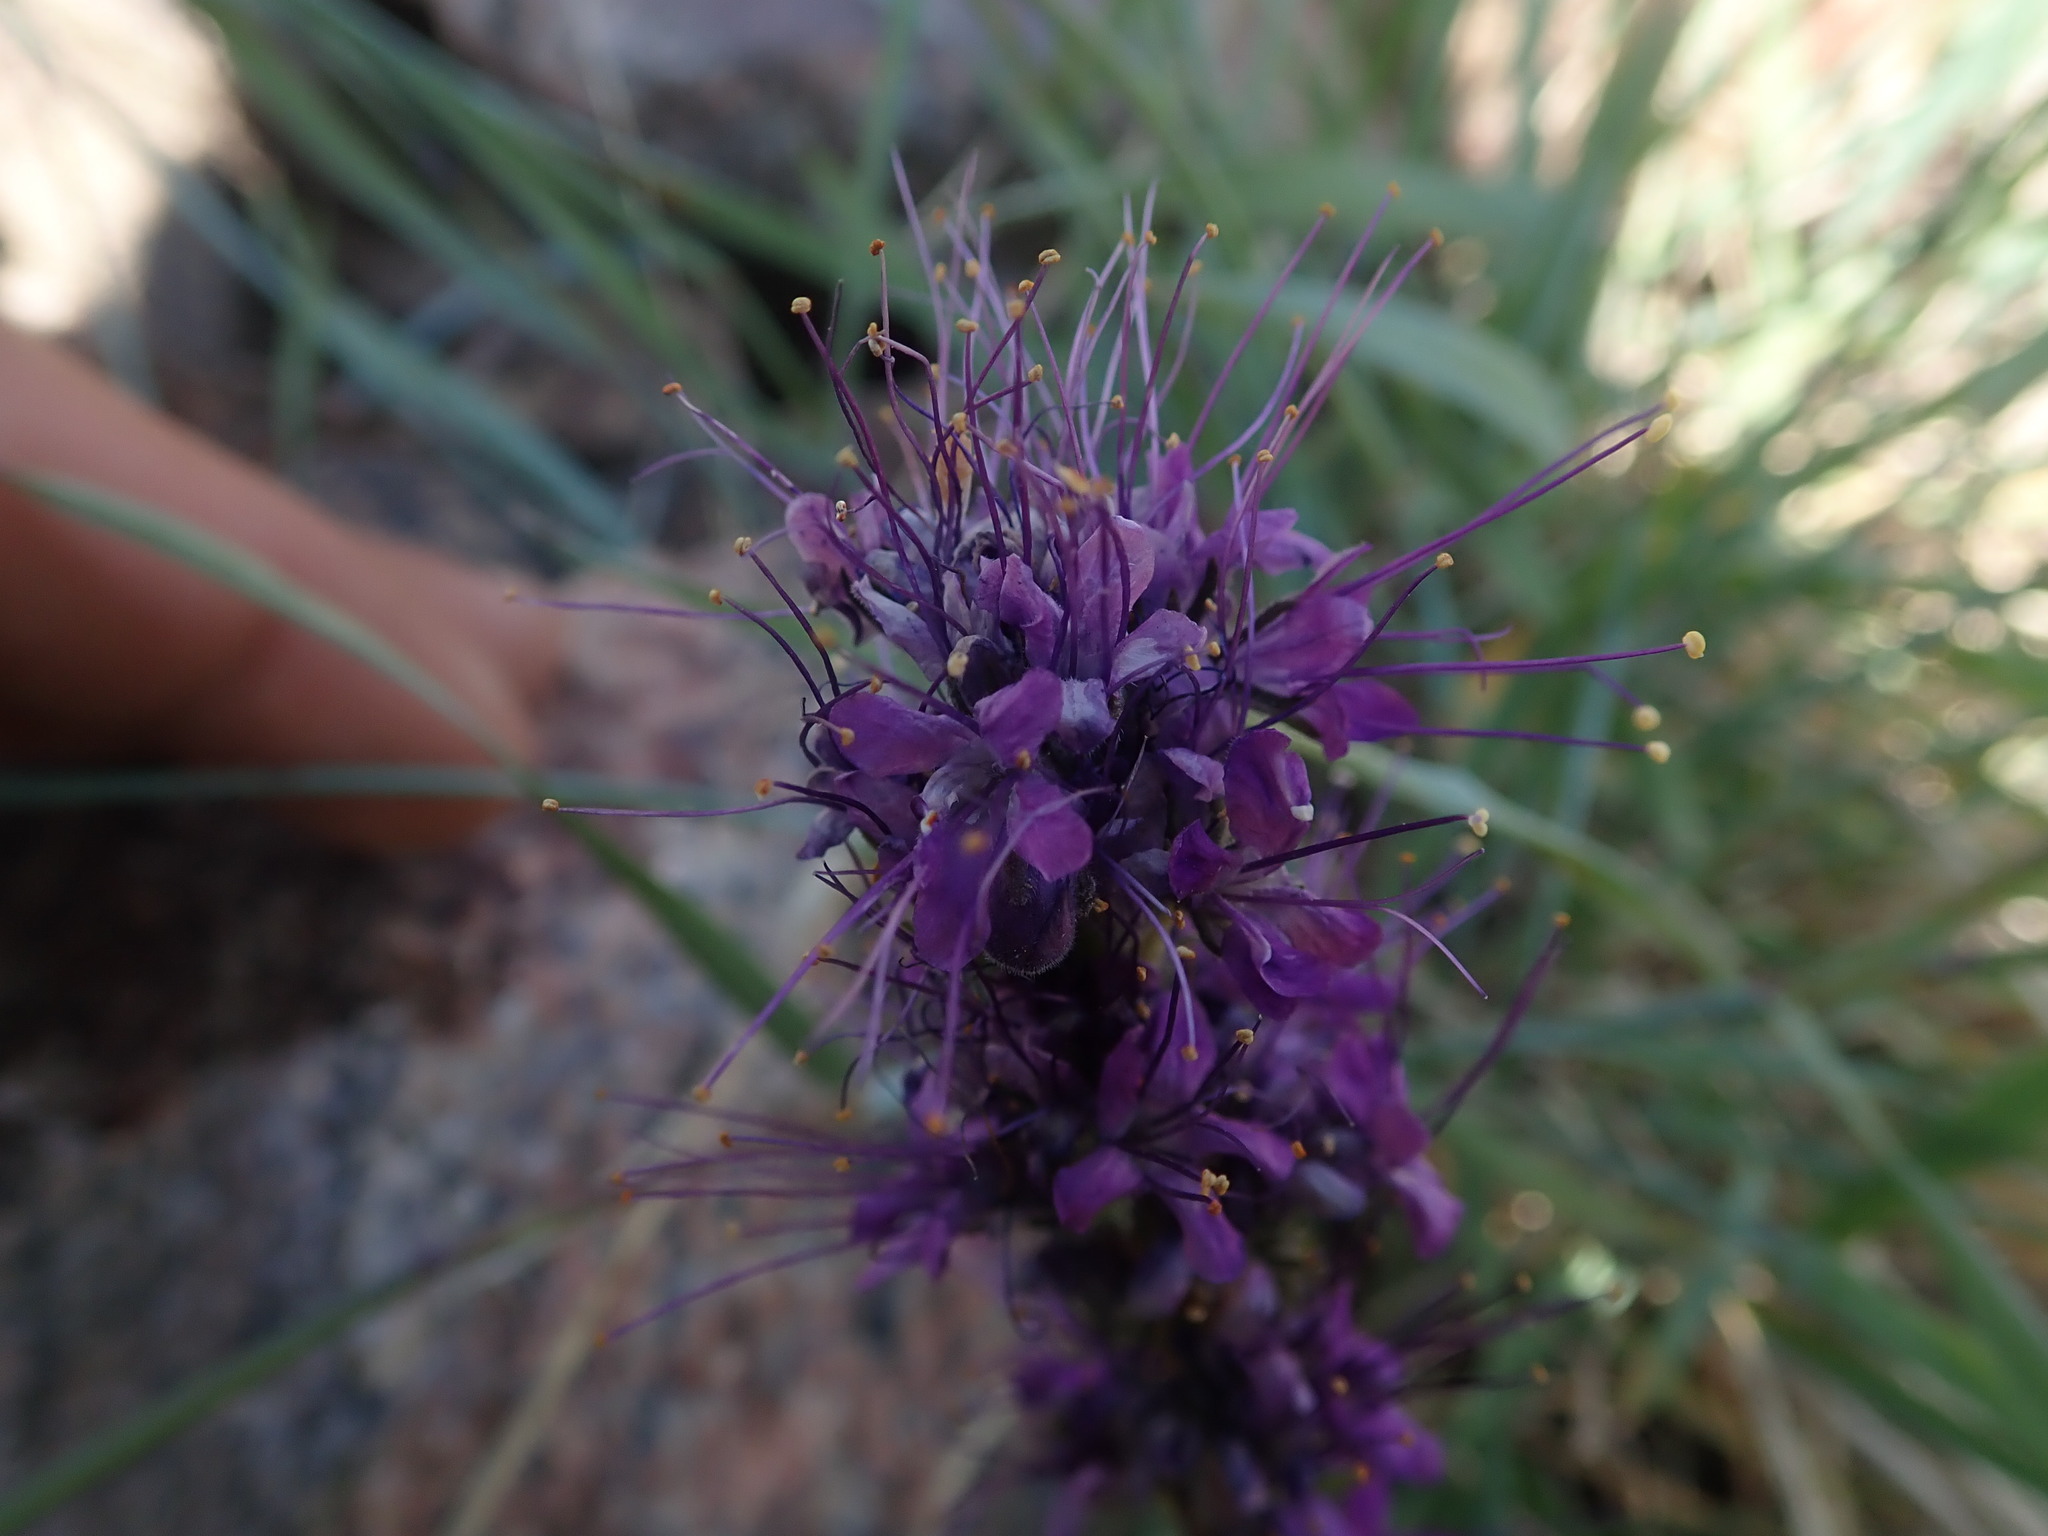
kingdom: Plantae
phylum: Tracheophyta
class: Magnoliopsida
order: Boraginales
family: Hydrophyllaceae
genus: Phacelia
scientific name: Phacelia sericea
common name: Silky phacelia
